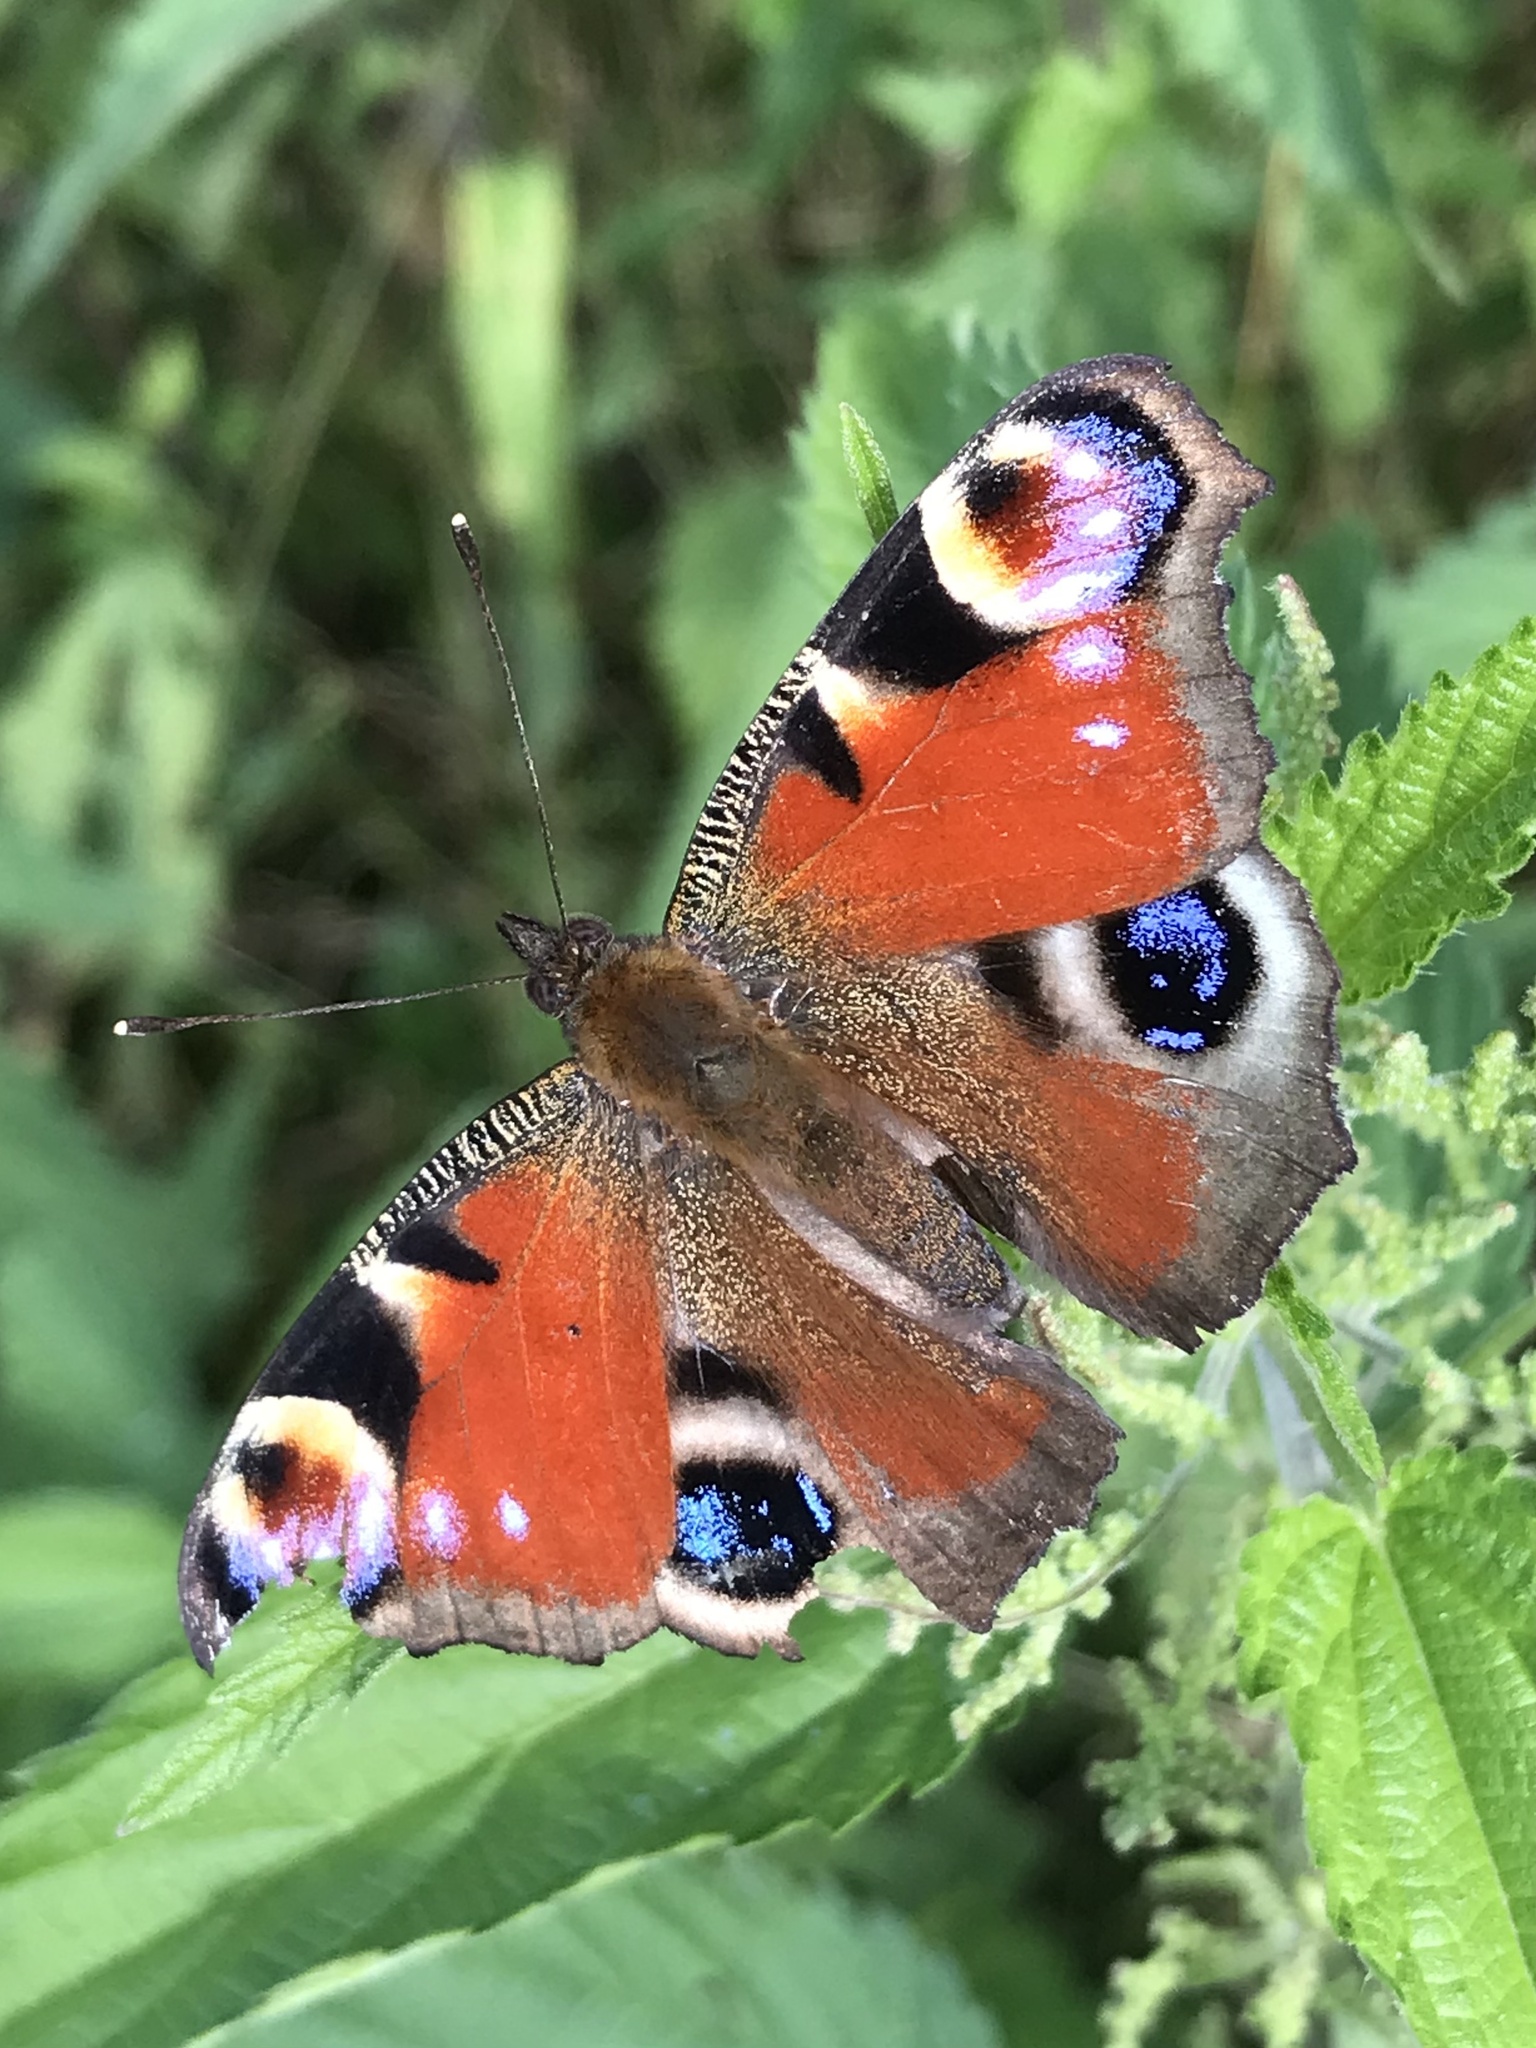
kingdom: Animalia
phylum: Arthropoda
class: Insecta
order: Lepidoptera
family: Nymphalidae
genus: Aglais
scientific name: Aglais io
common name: Peacock
